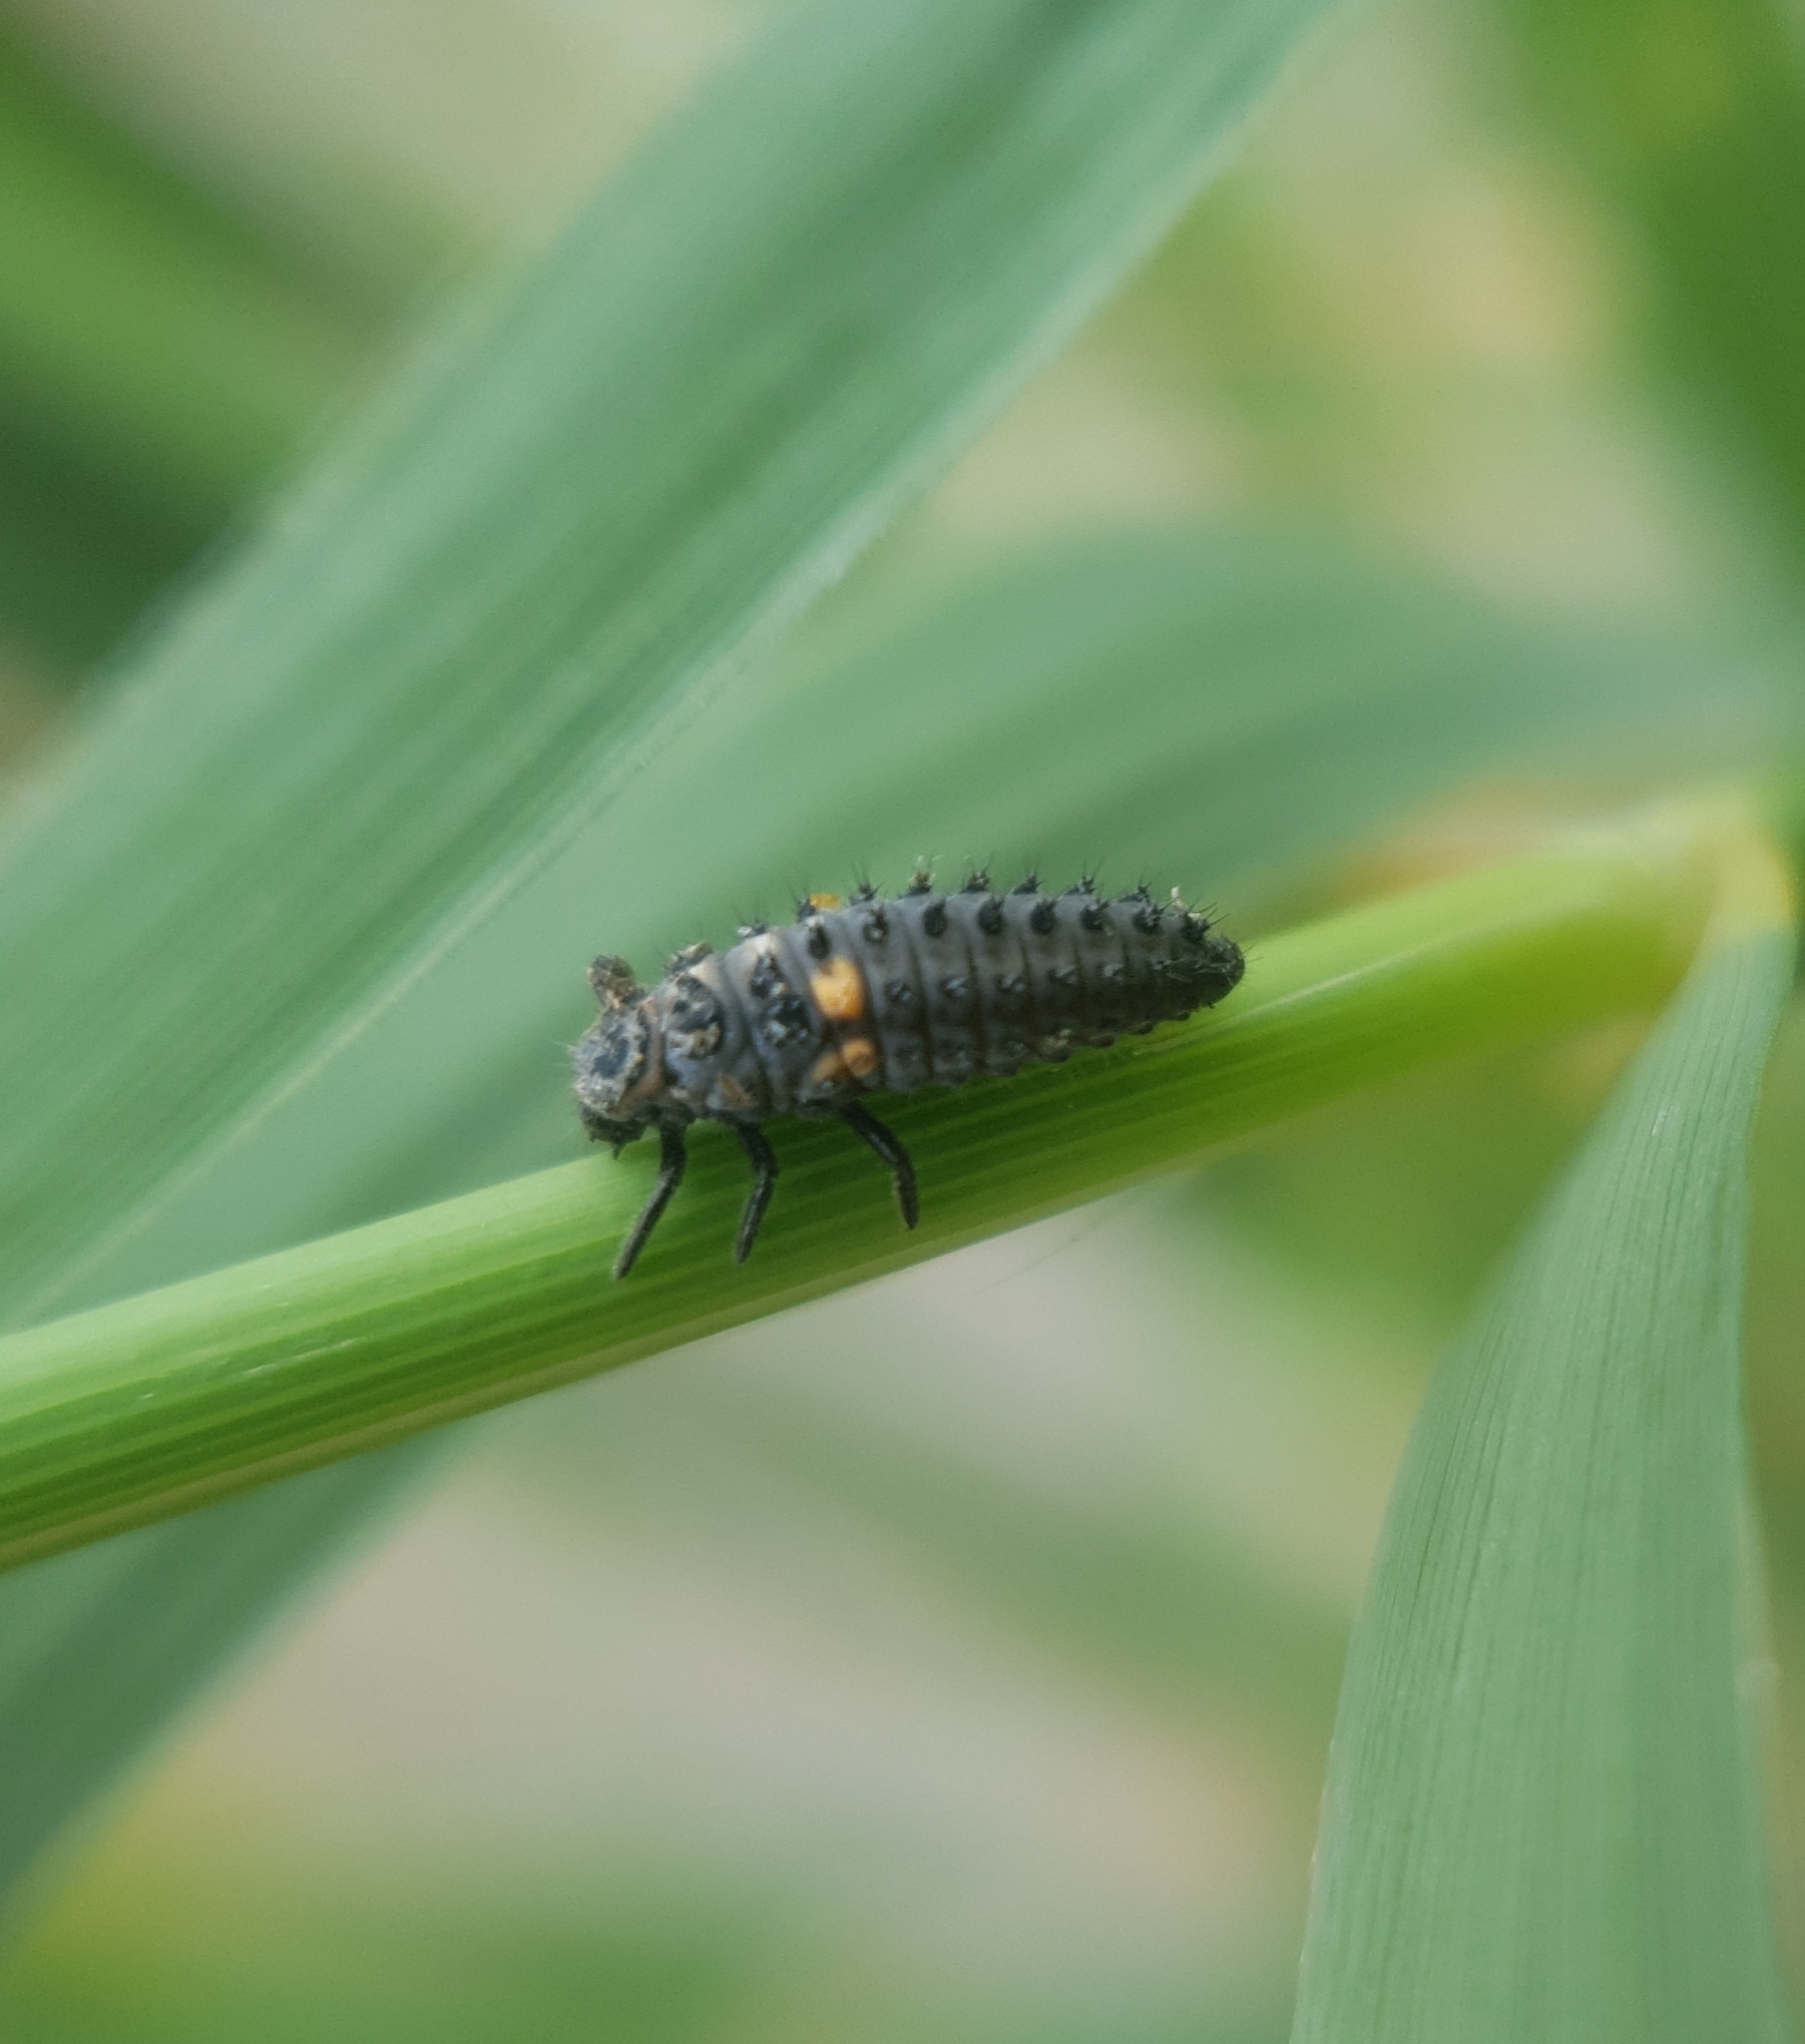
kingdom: Animalia
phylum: Arthropoda
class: Insecta
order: Coleoptera
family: Coccinellidae
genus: Hippodamia
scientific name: Hippodamia variegata
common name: Ladybird beetle
